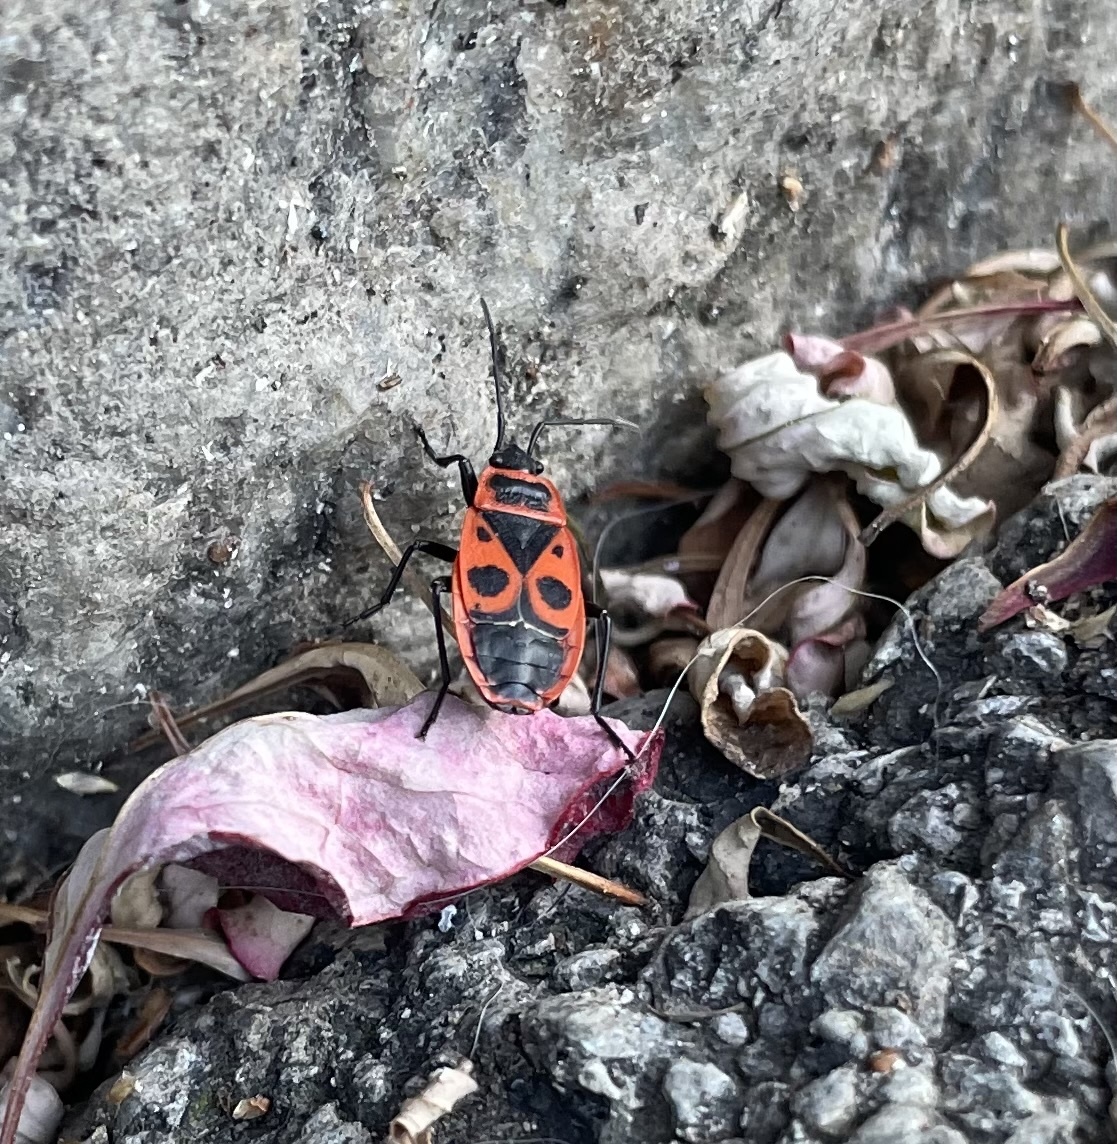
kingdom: Animalia
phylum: Arthropoda
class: Insecta
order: Hemiptera
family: Pyrrhocoridae
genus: Pyrrhocoris
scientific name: Pyrrhocoris apterus
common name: Firebug
